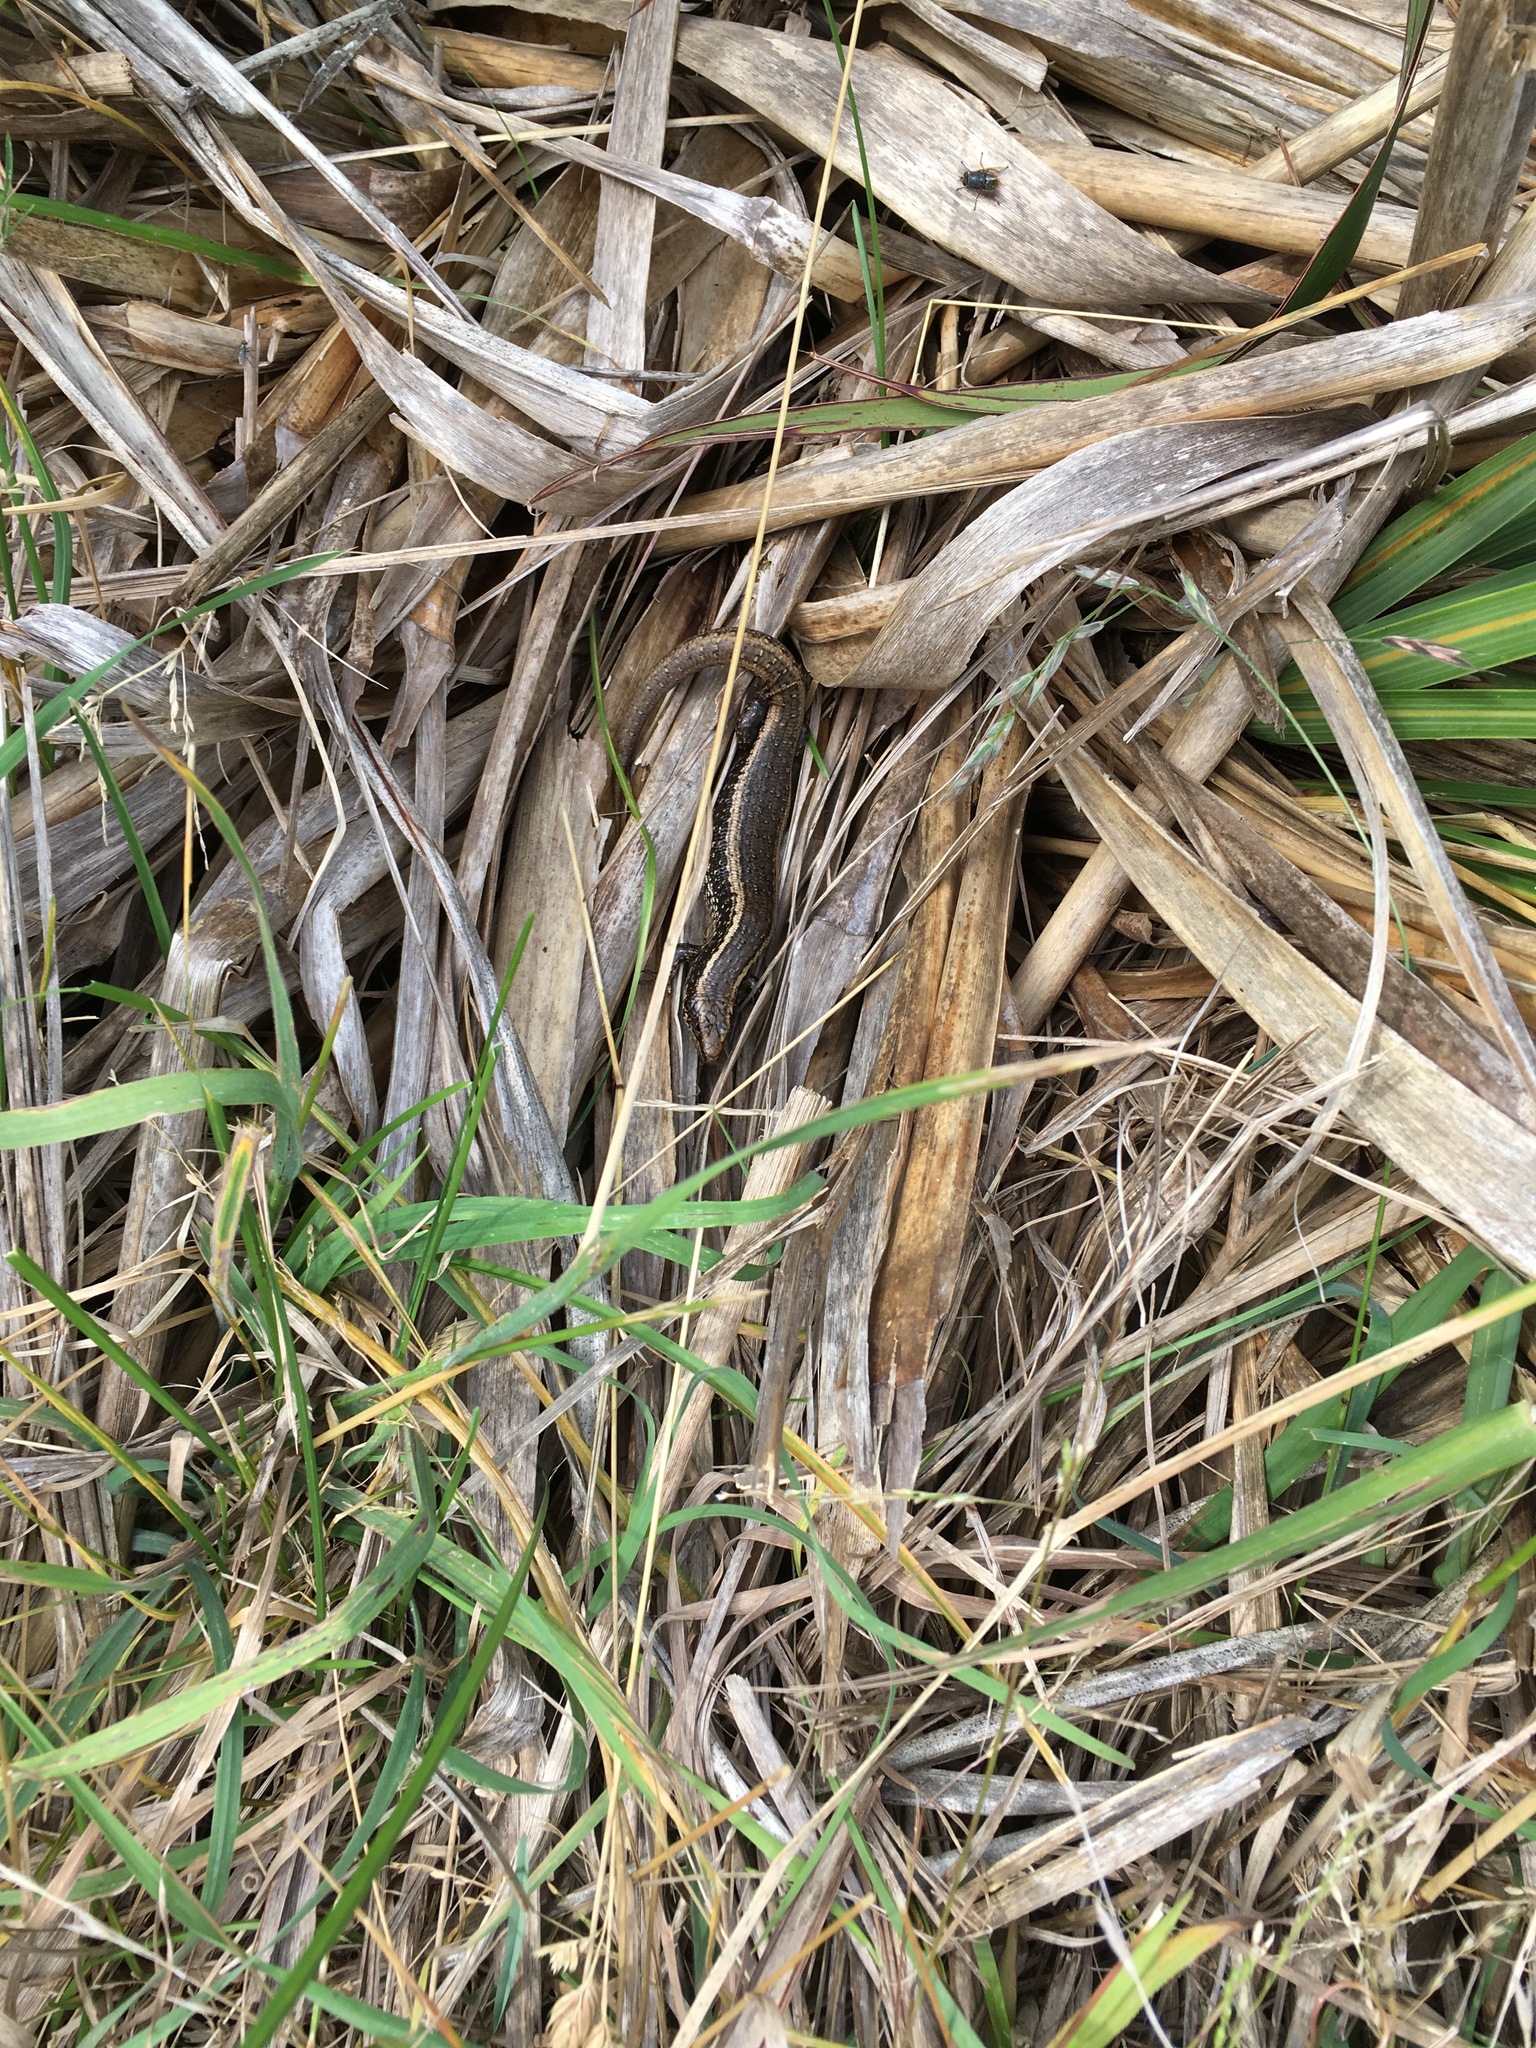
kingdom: Animalia
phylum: Chordata
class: Squamata
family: Scincidae
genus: Oligosoma
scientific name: Oligosoma kokowai
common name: Northern spotted skink
